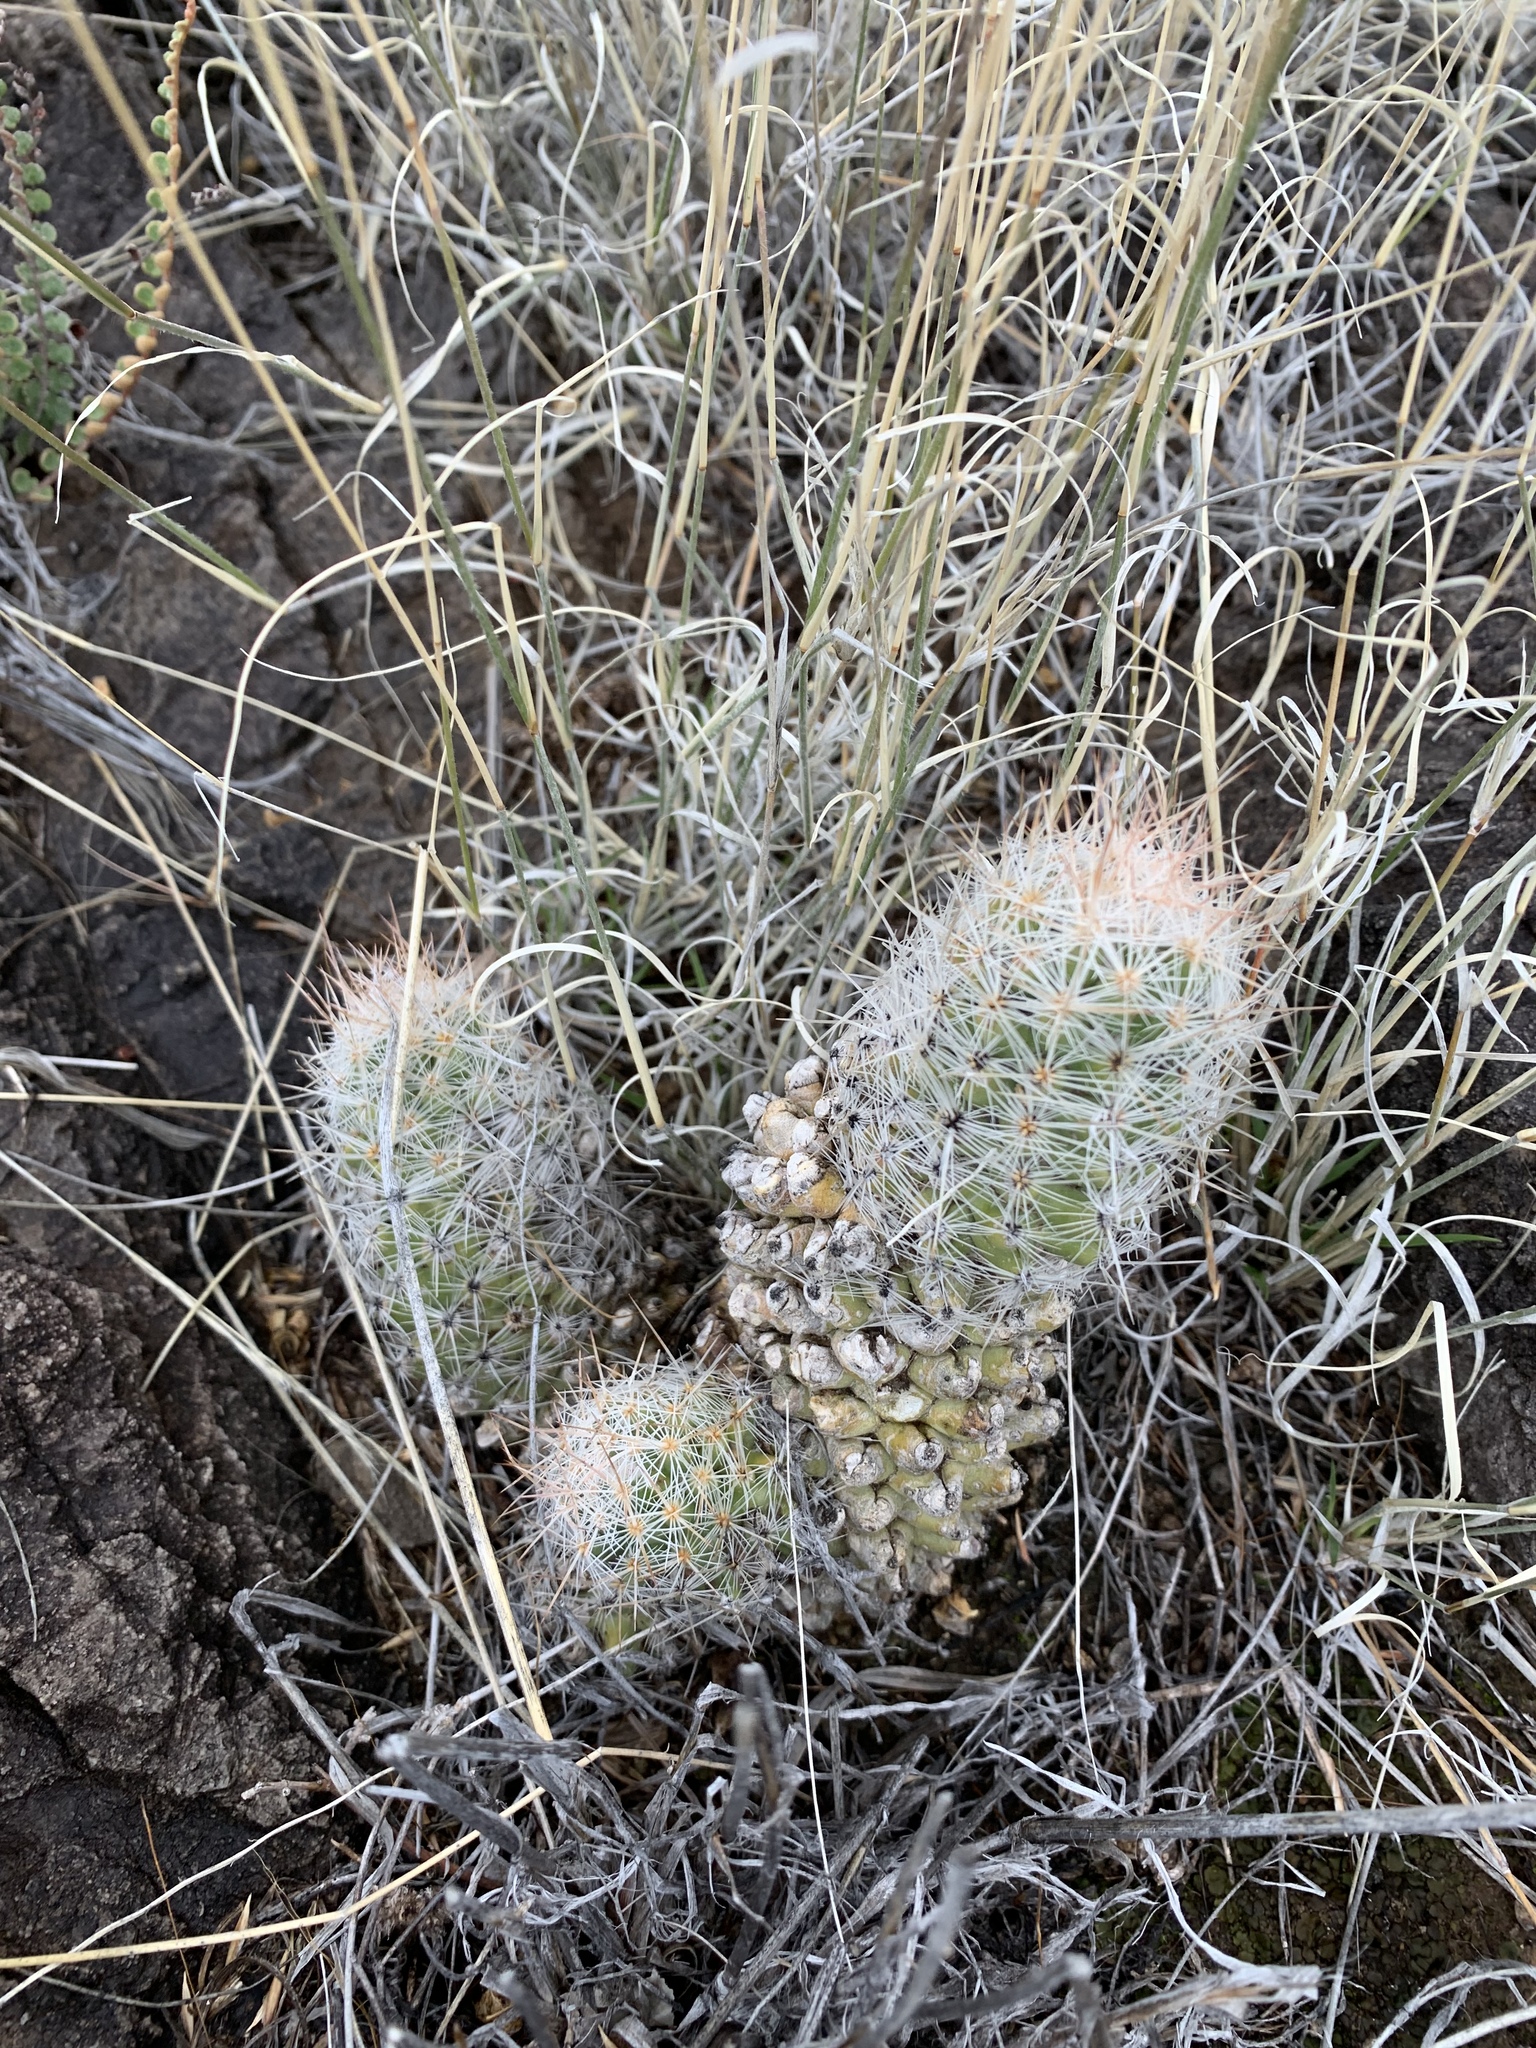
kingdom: Plantae
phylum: Tracheophyta
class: Magnoliopsida
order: Caryophyllales
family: Cactaceae
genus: Pelecyphora
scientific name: Pelecyphora tuberculosa
